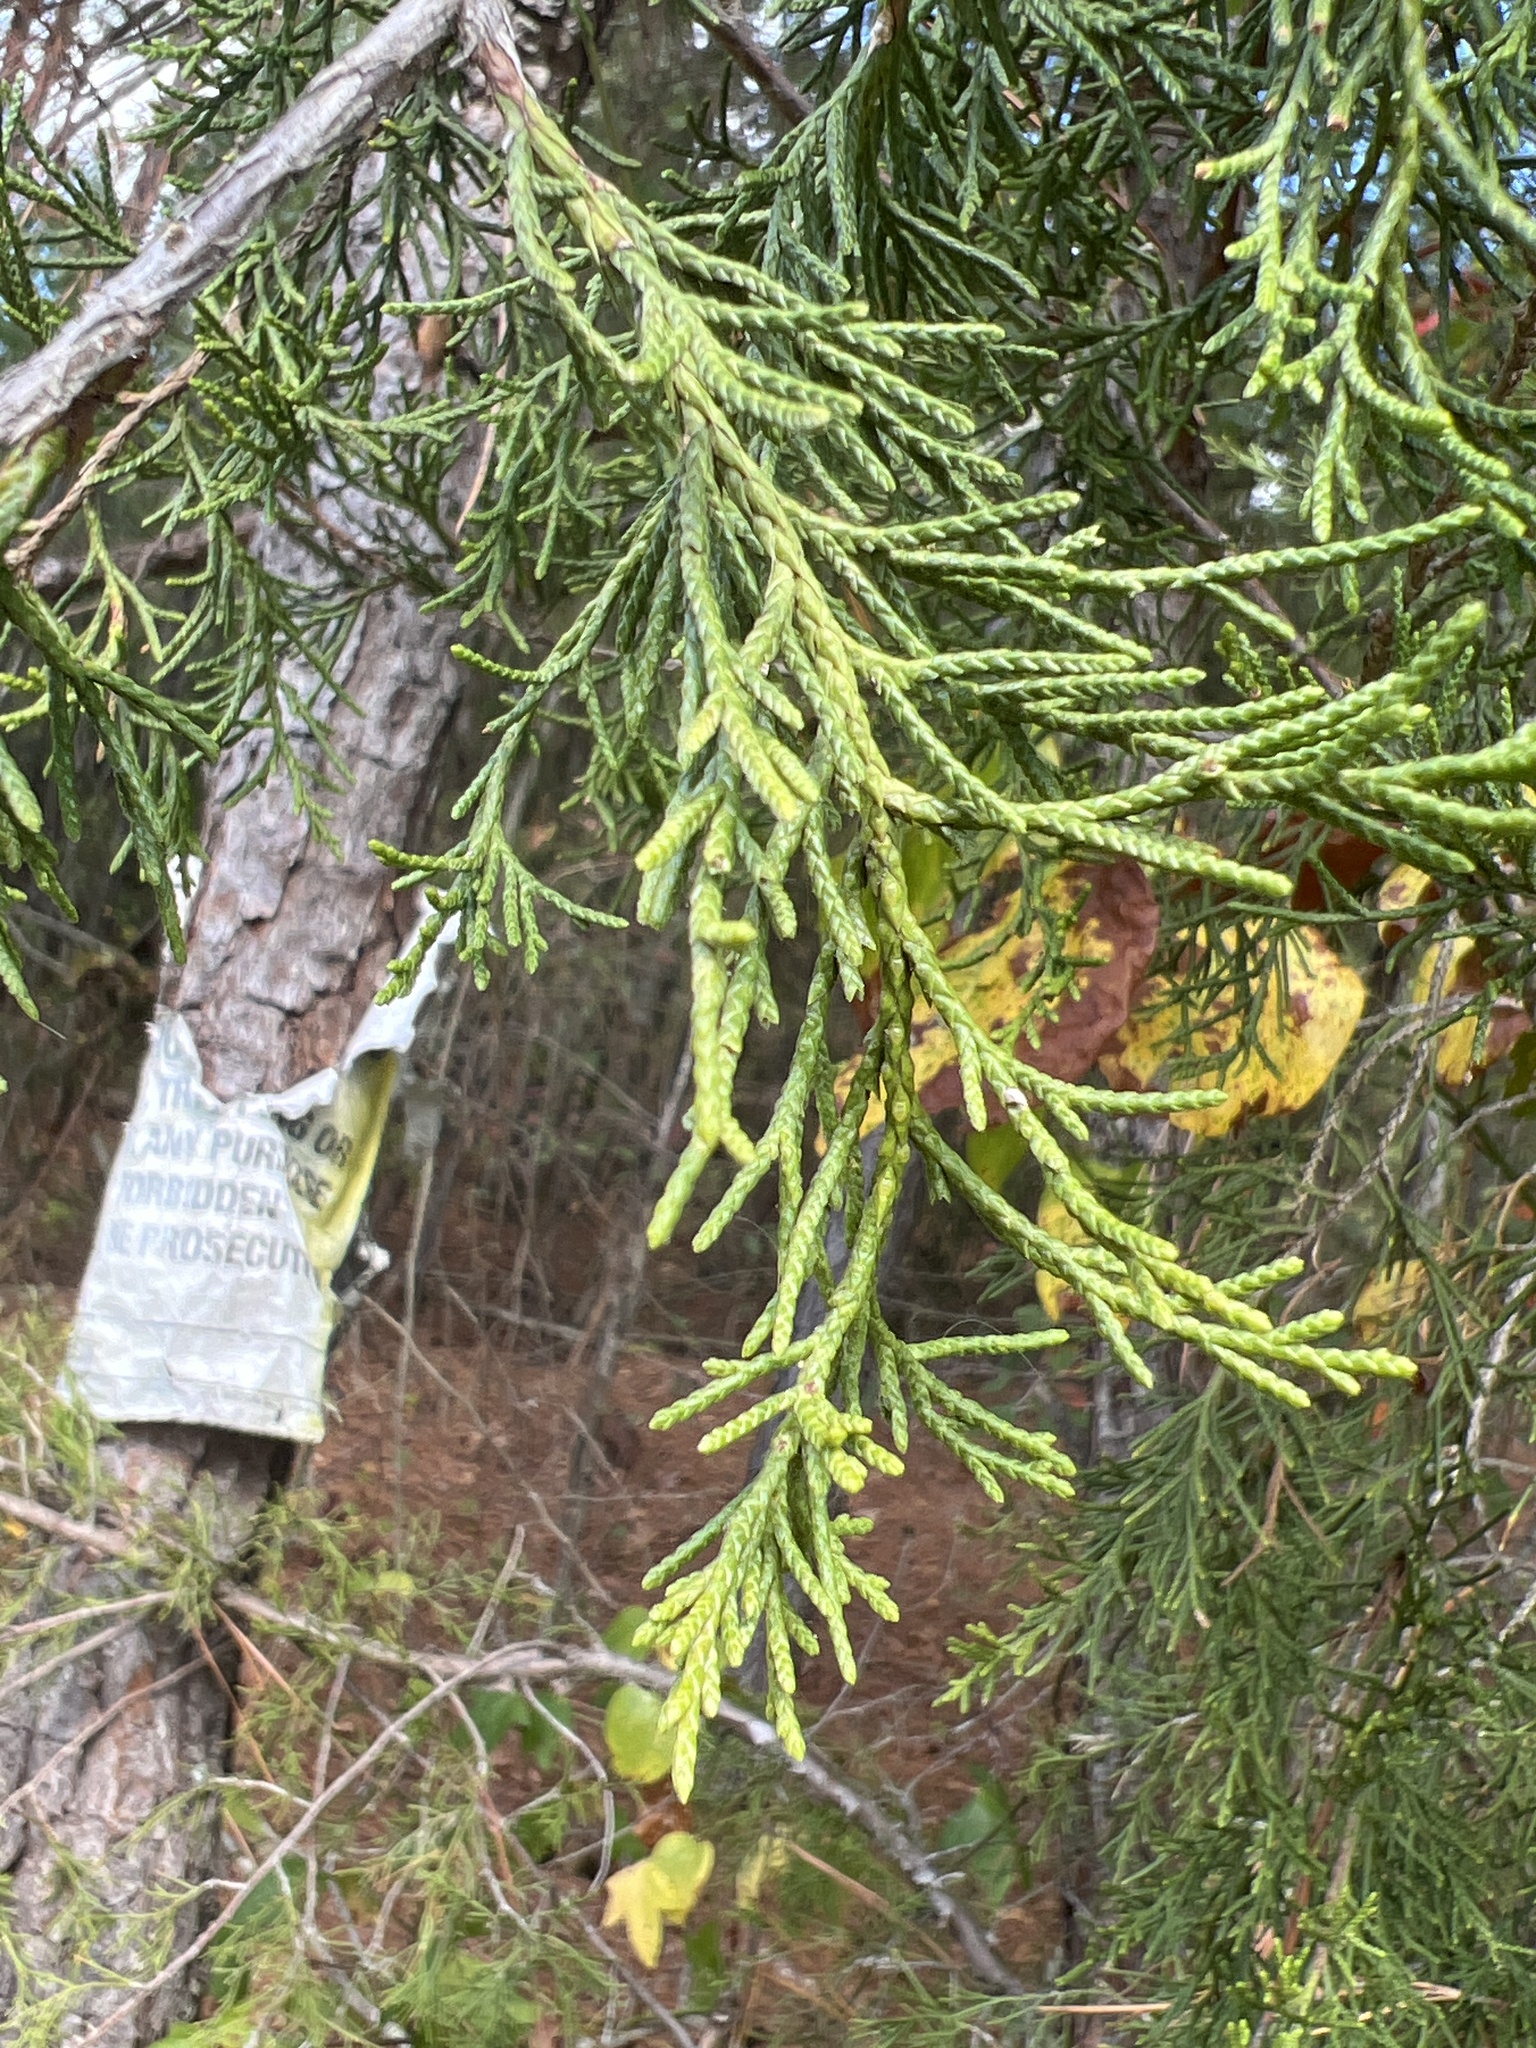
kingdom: Plantae
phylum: Tracheophyta
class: Pinopsida
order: Pinales
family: Cupressaceae
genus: Juniperus
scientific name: Juniperus virginiana
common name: Red juniper
